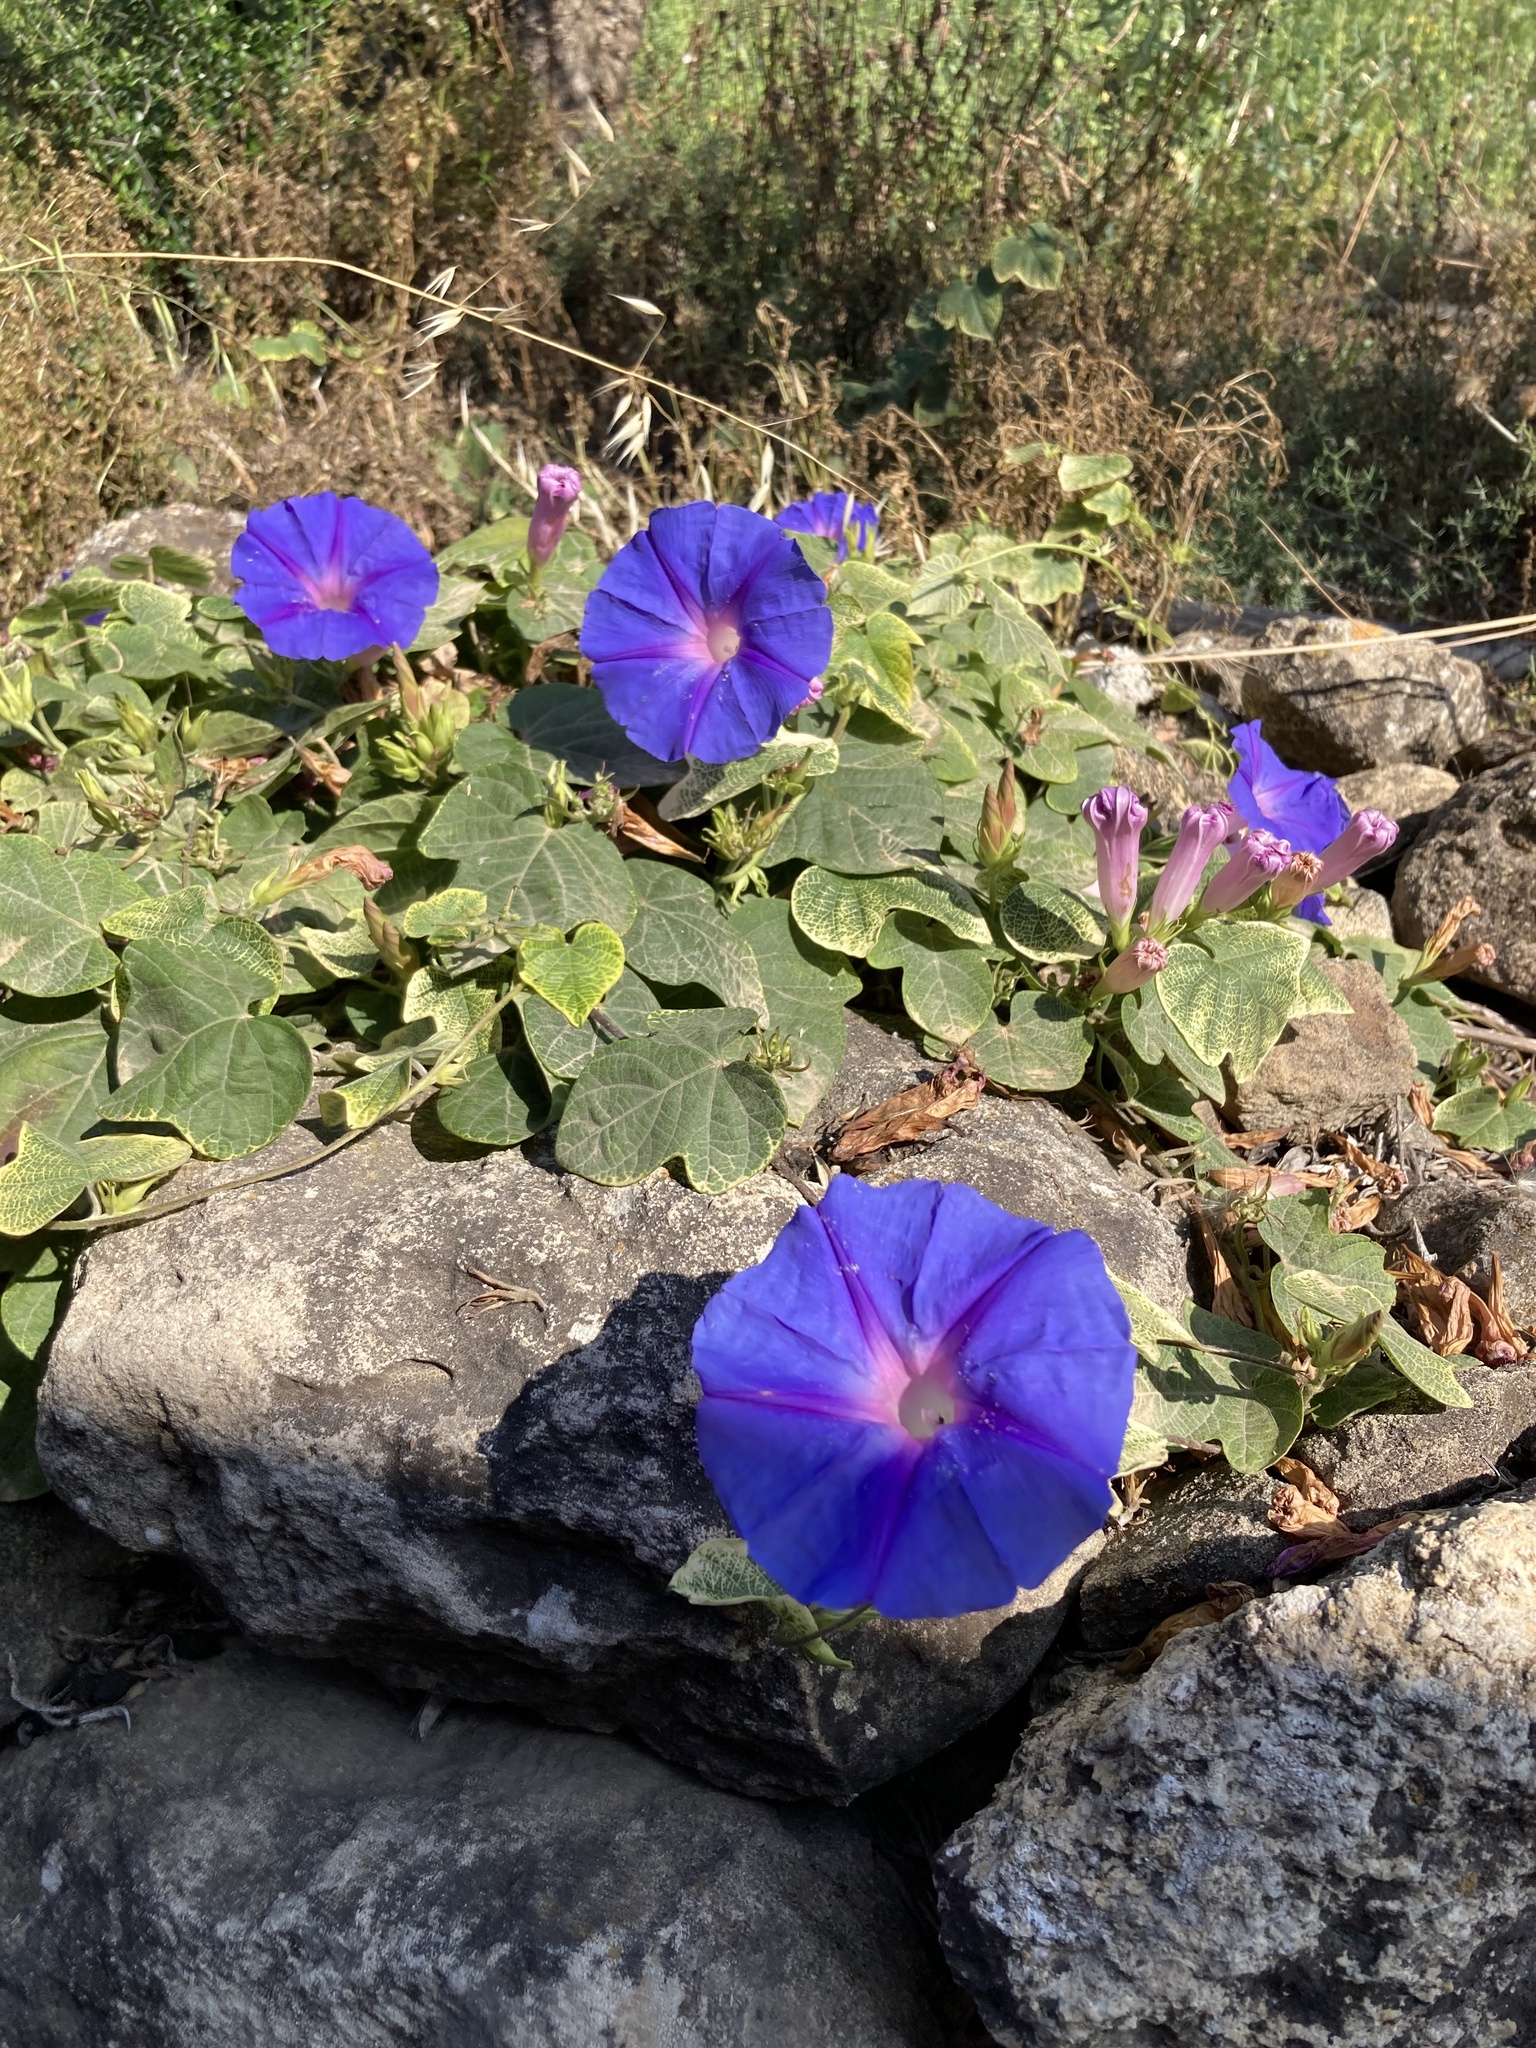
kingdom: Plantae
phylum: Tracheophyta
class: Magnoliopsida
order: Solanales
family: Convolvulaceae
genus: Ipomoea
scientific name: Ipomoea indica
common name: Blue dawnflower
